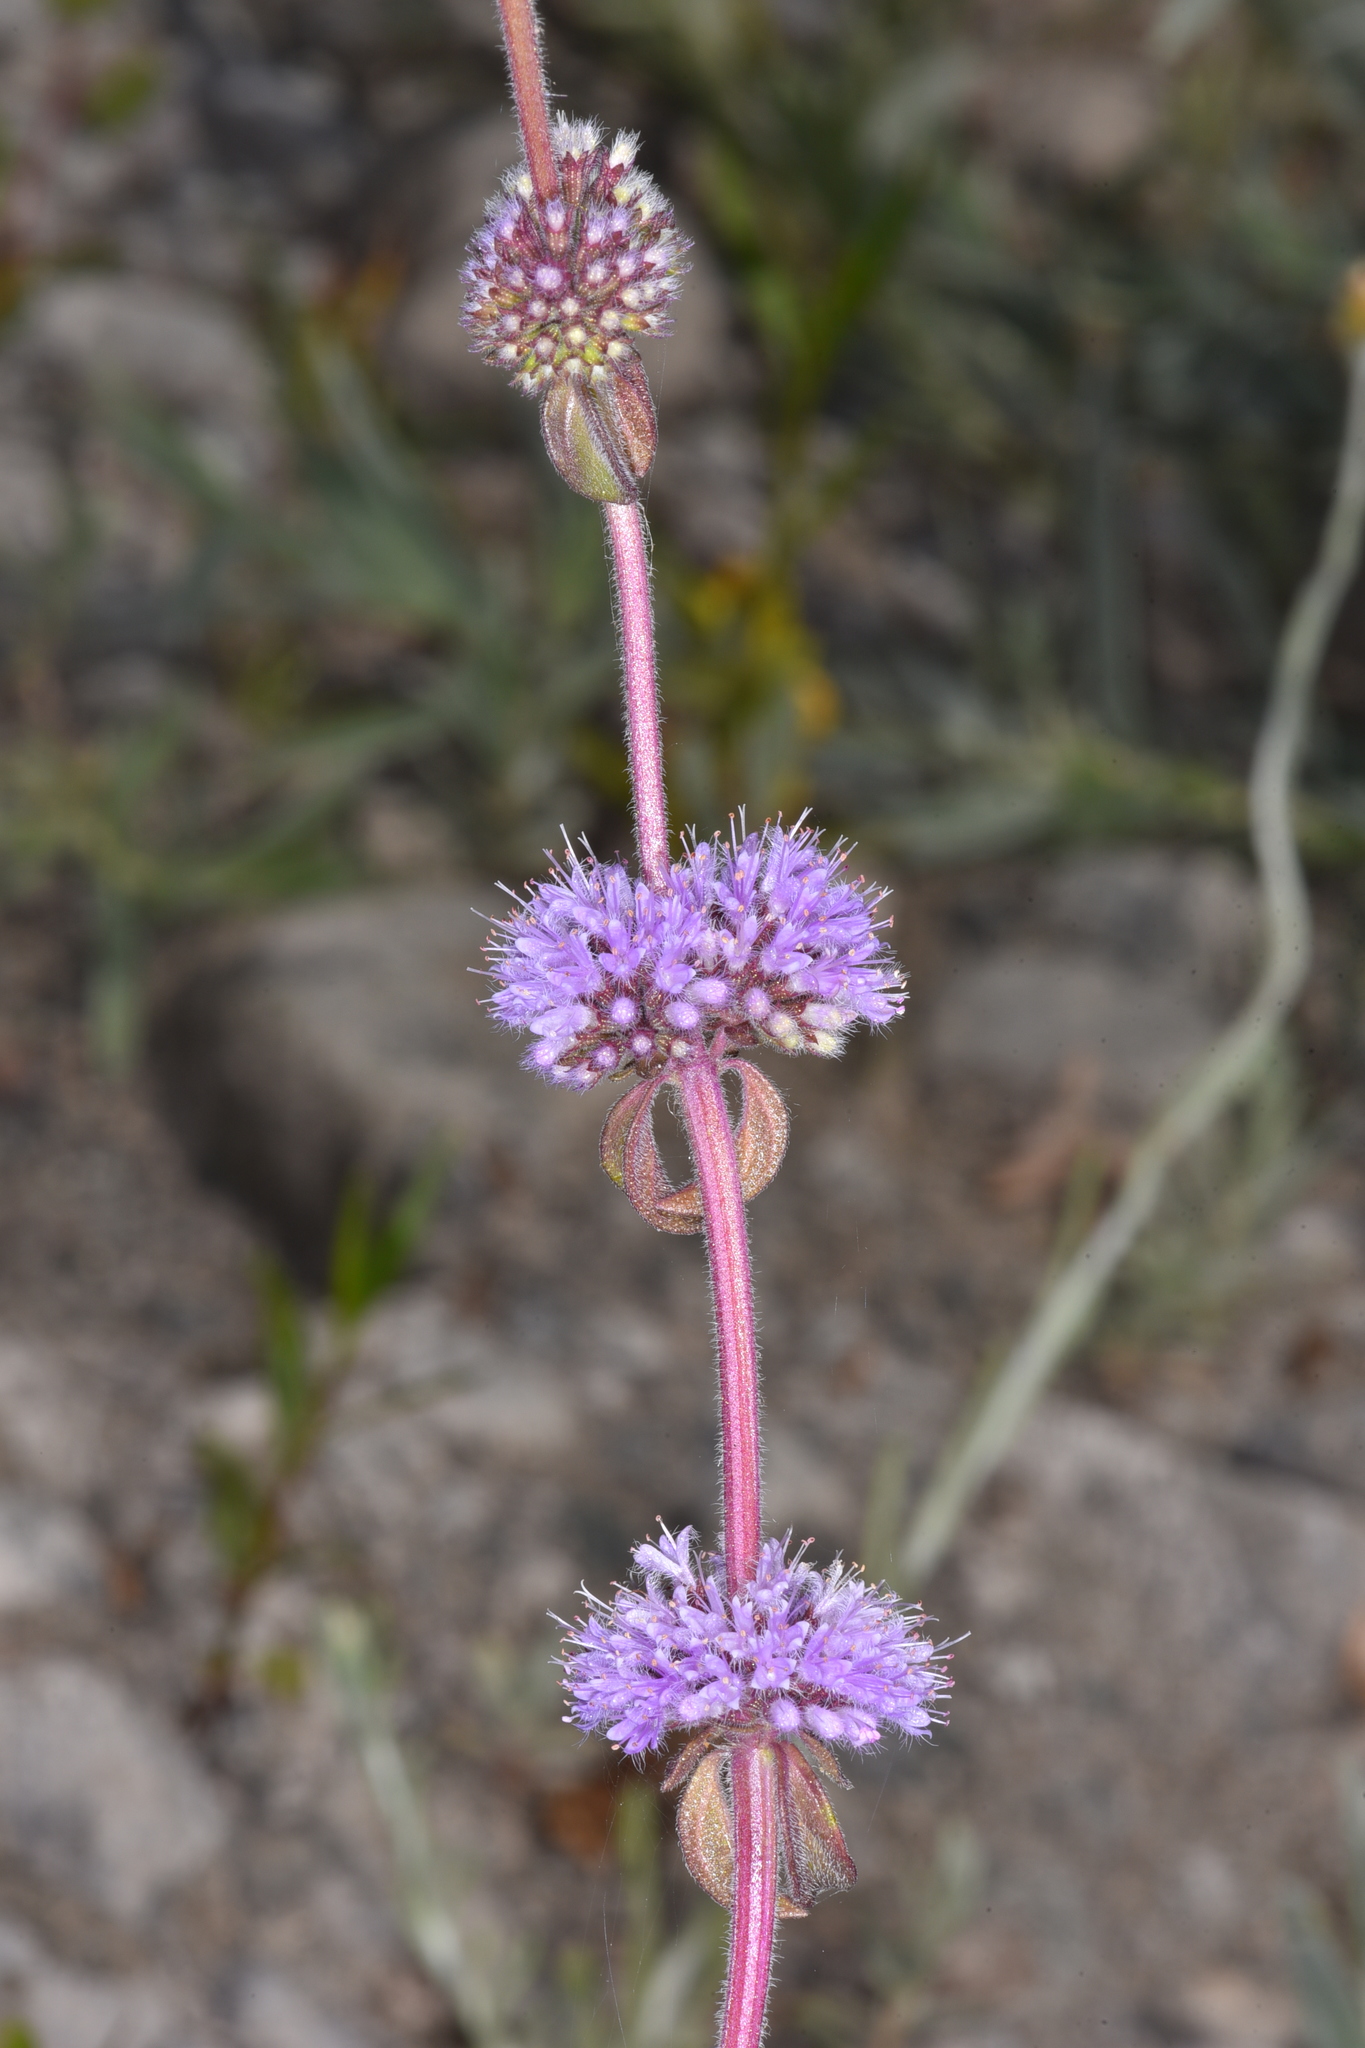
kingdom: Plantae
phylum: Tracheophyta
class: Magnoliopsida
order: Lamiales
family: Lamiaceae
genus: Mentha
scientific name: Mentha pulegium
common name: Pennyroyal
